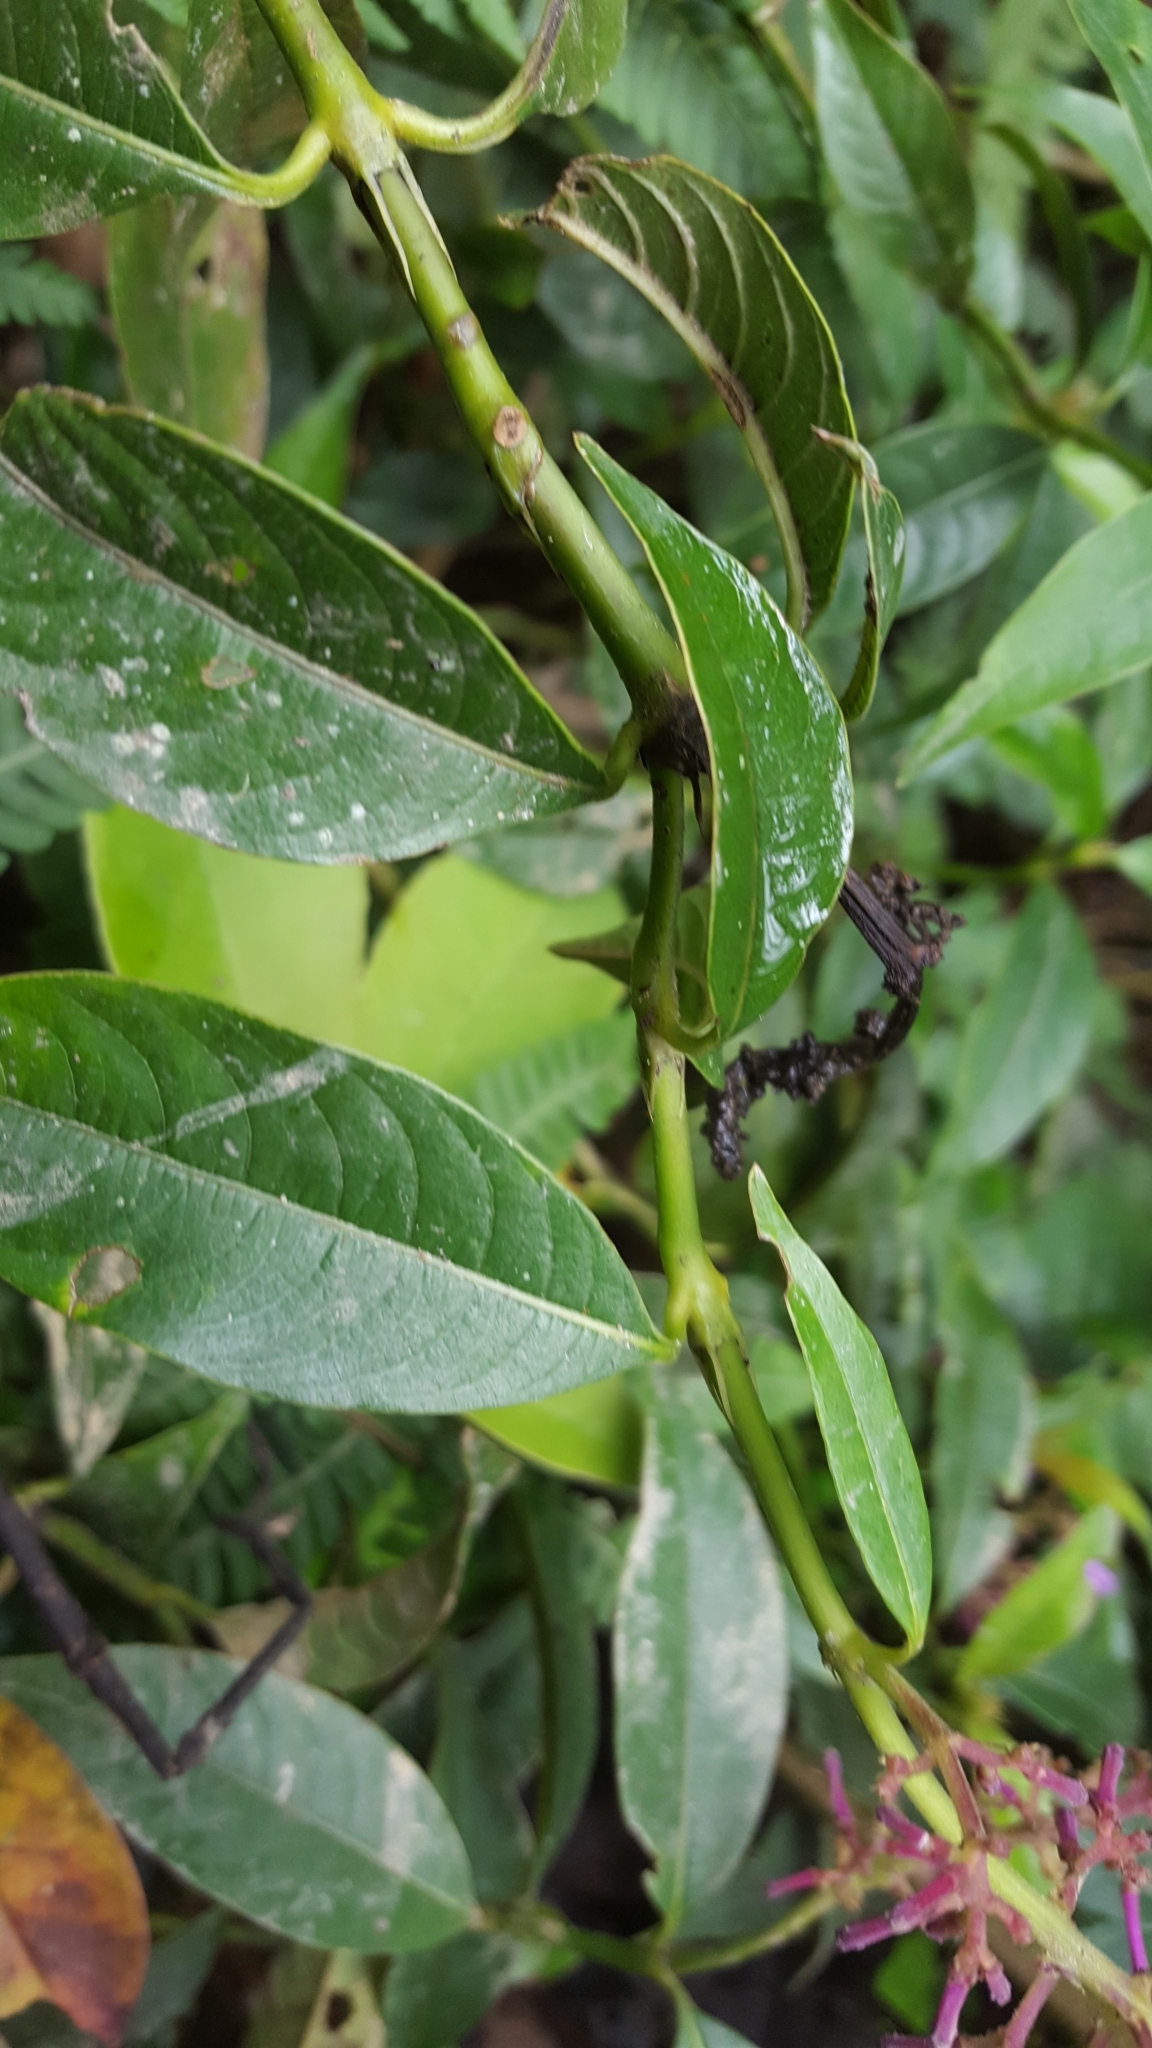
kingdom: Plantae
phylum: Tracheophyta
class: Magnoliopsida
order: Gentianales
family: Rubiaceae
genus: Palicourea
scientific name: Palicourea angustifolia
